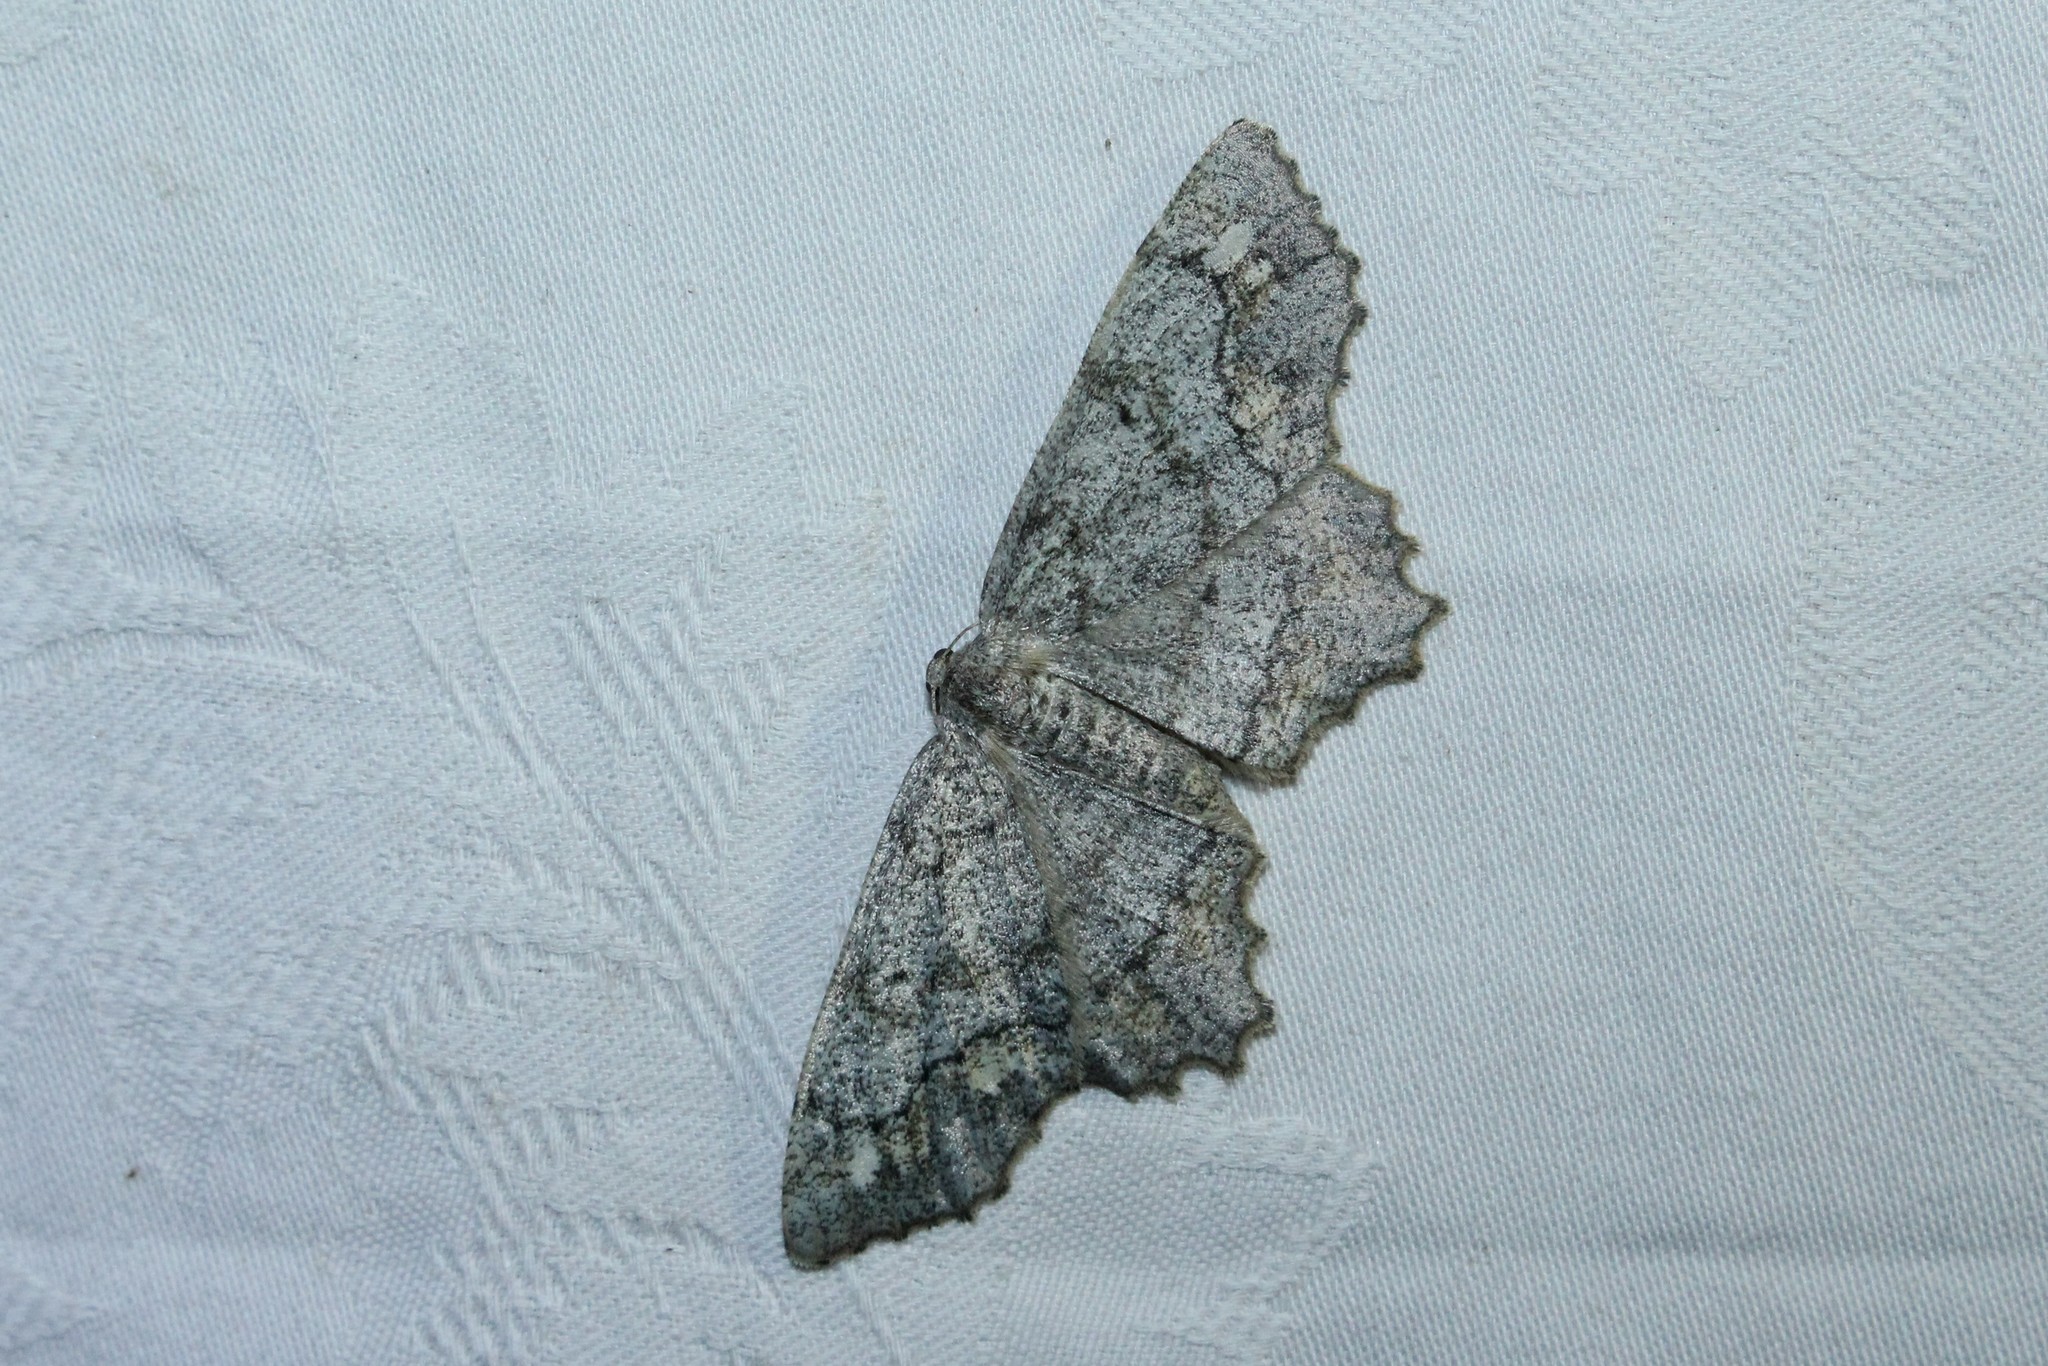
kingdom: Animalia
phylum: Arthropoda
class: Insecta
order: Lepidoptera
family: Geometridae
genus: Hypagyrtis
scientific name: Hypagyrtis unipunctata
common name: One-spotted variant
